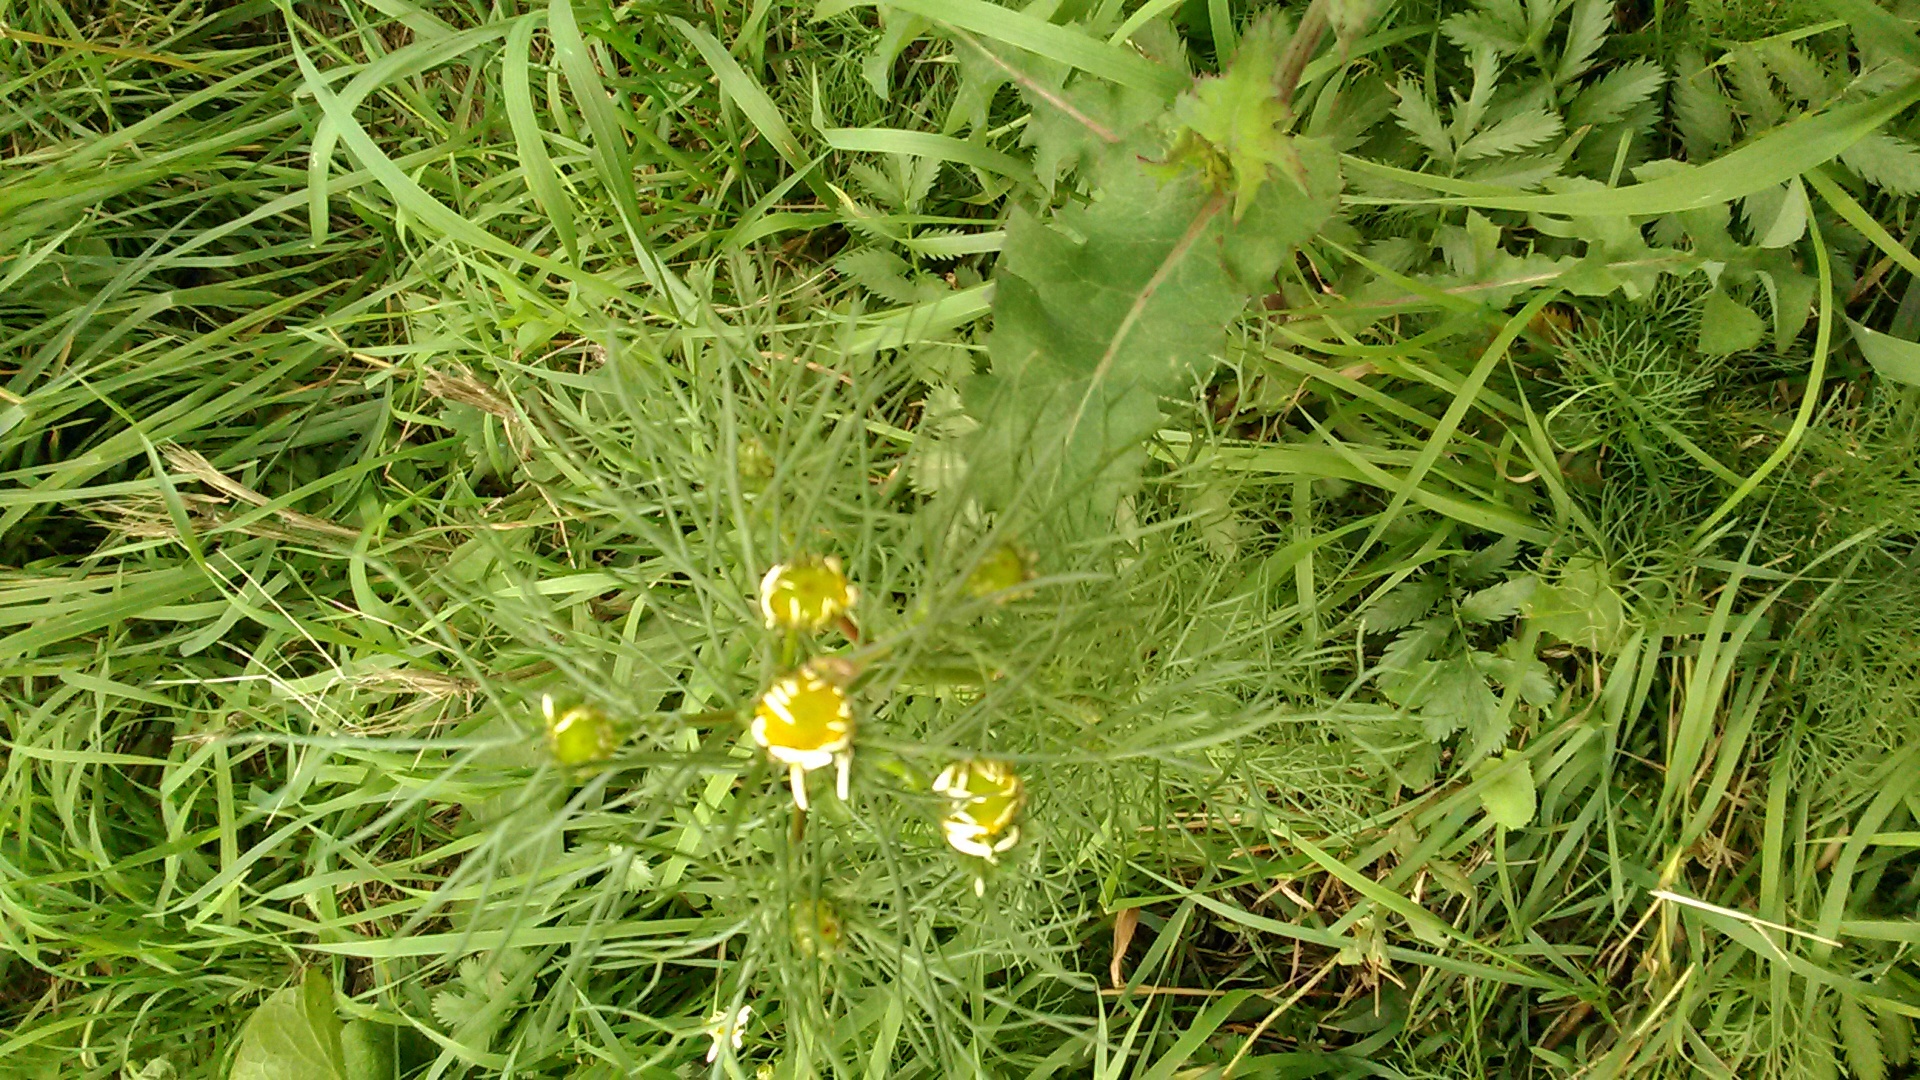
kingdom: Plantae
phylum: Tracheophyta
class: Magnoliopsida
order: Asterales
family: Asteraceae
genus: Tripleurospermum
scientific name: Tripleurospermum inodorum
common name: Scentless mayweed
